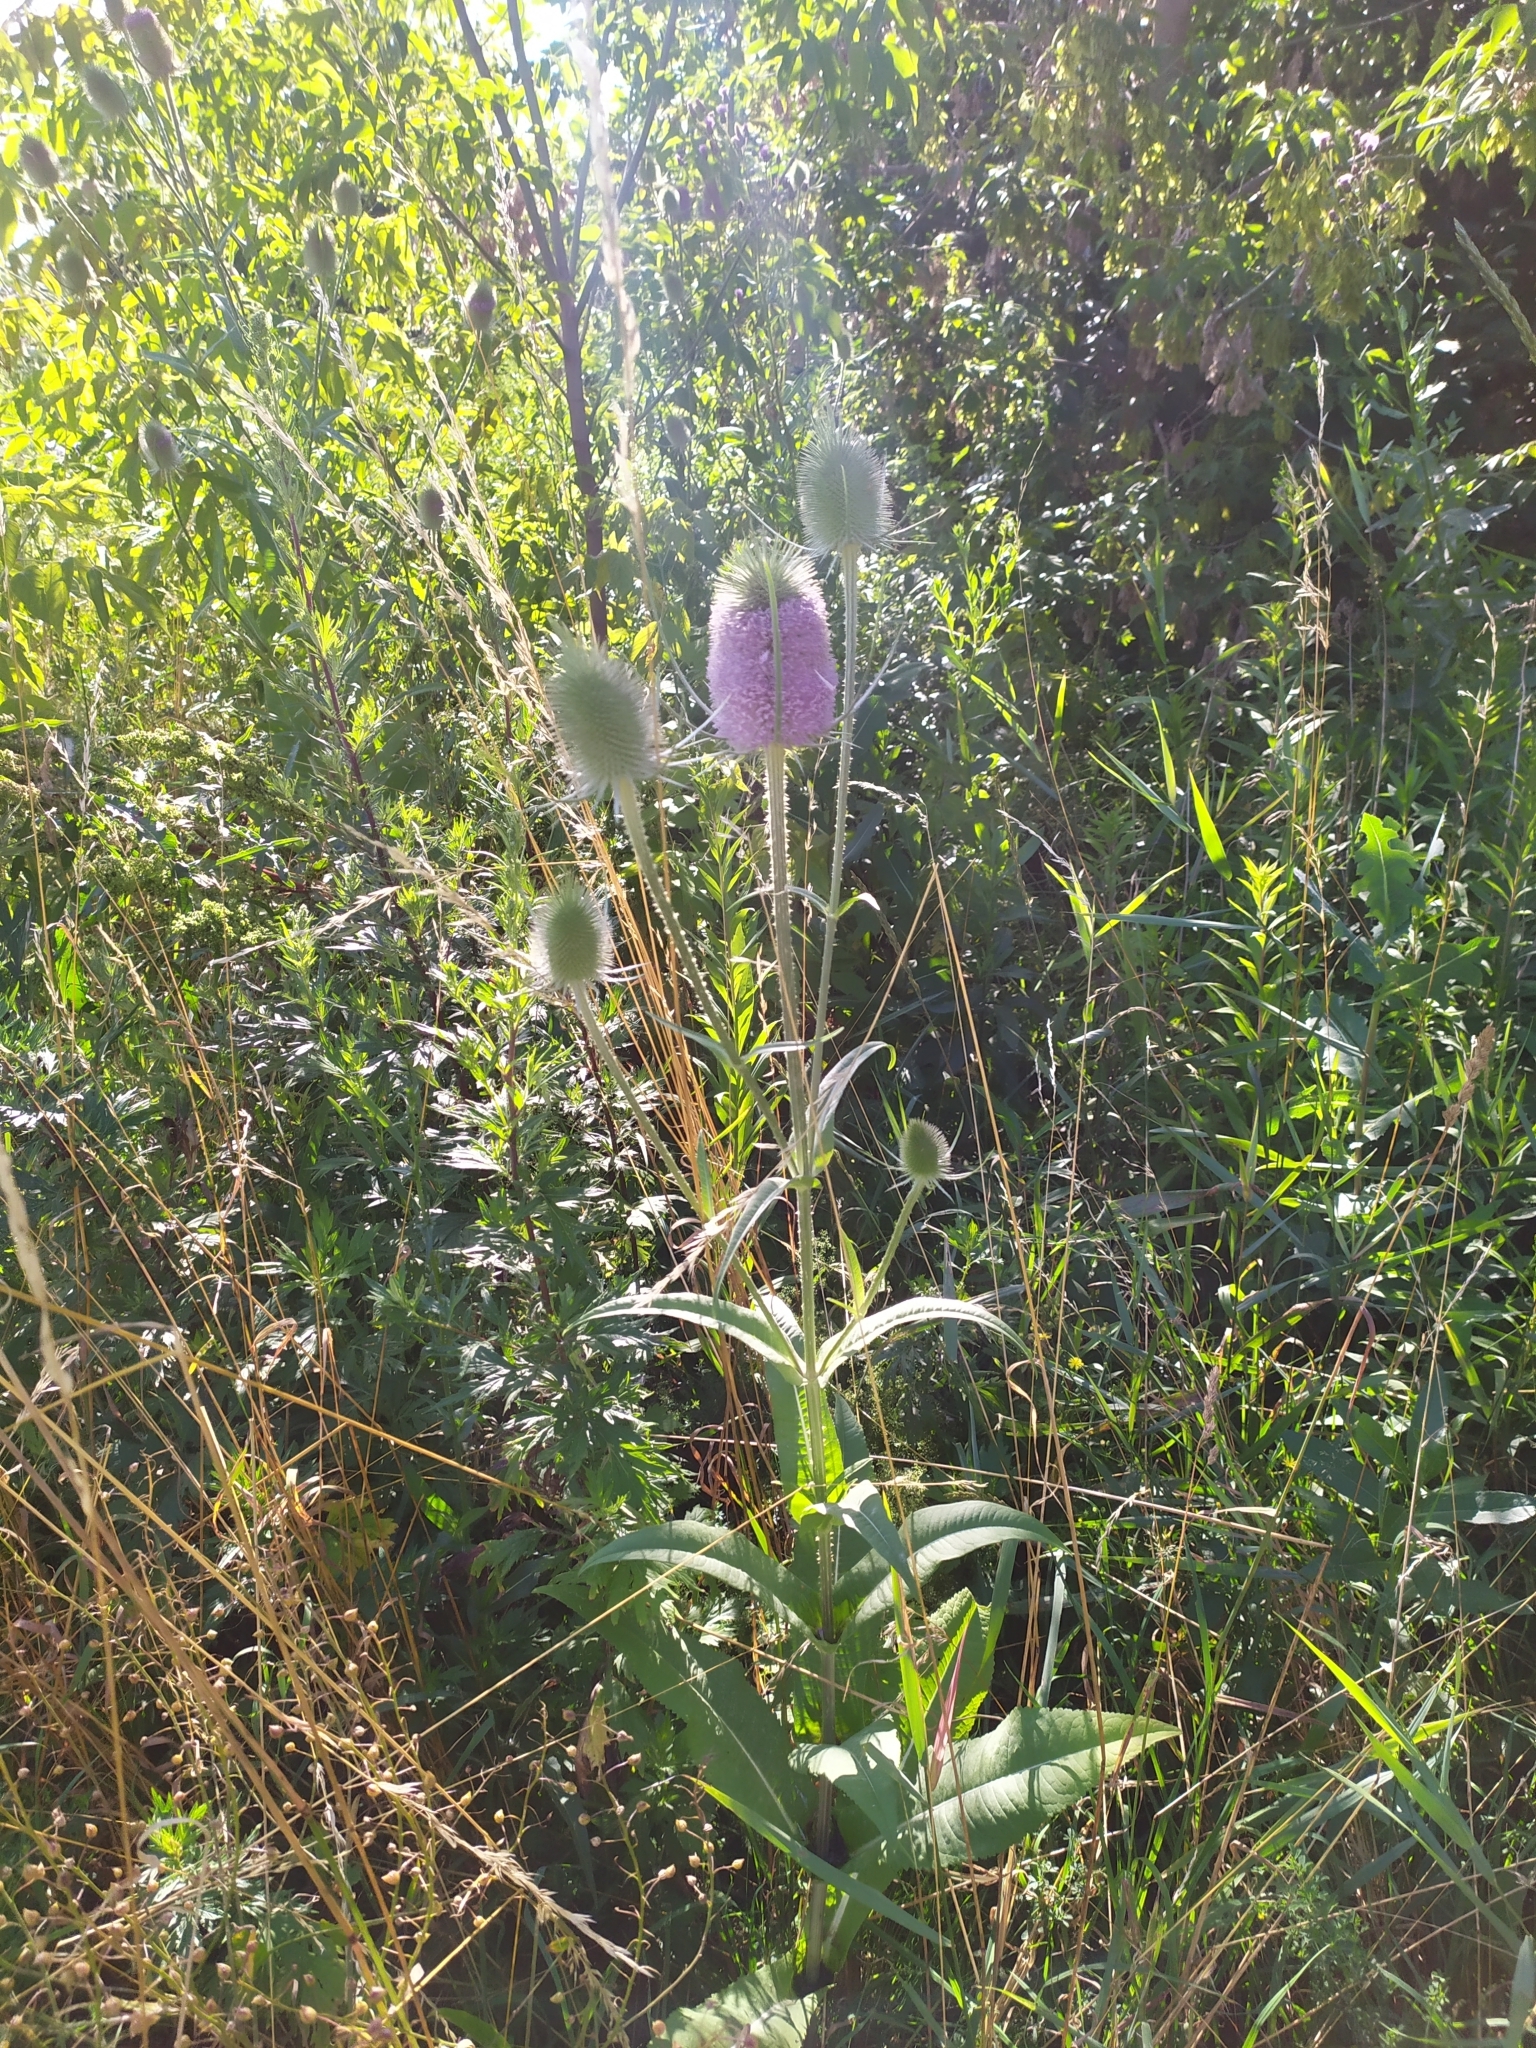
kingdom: Plantae
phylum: Tracheophyta
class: Magnoliopsida
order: Dipsacales
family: Caprifoliaceae
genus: Dipsacus
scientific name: Dipsacus fullonum
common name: Teasel
